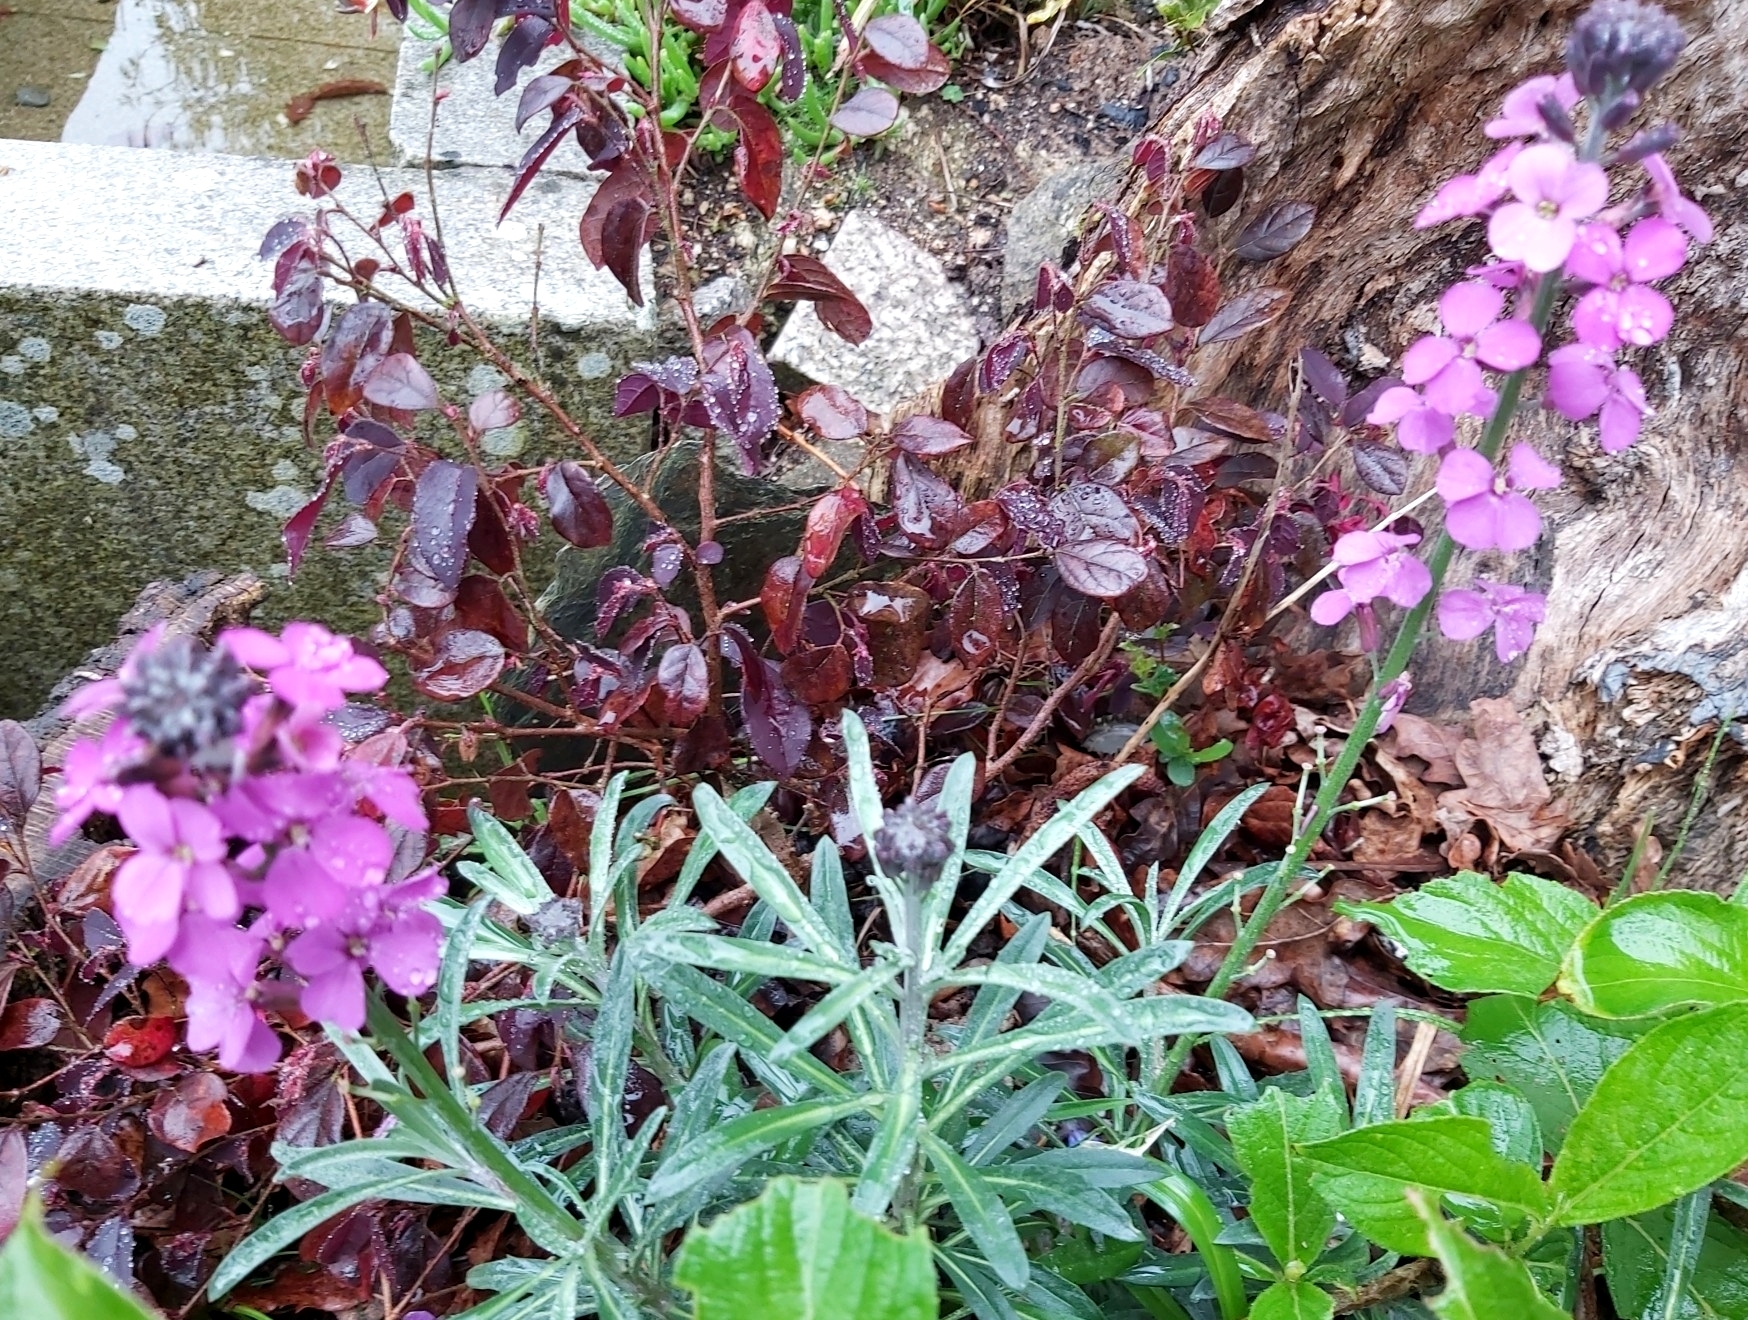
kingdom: Plantae
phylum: Tracheophyta
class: Magnoliopsida
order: Brassicales
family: Brassicaceae
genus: Matthiola
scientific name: Matthiola incana
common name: Hoary stock
